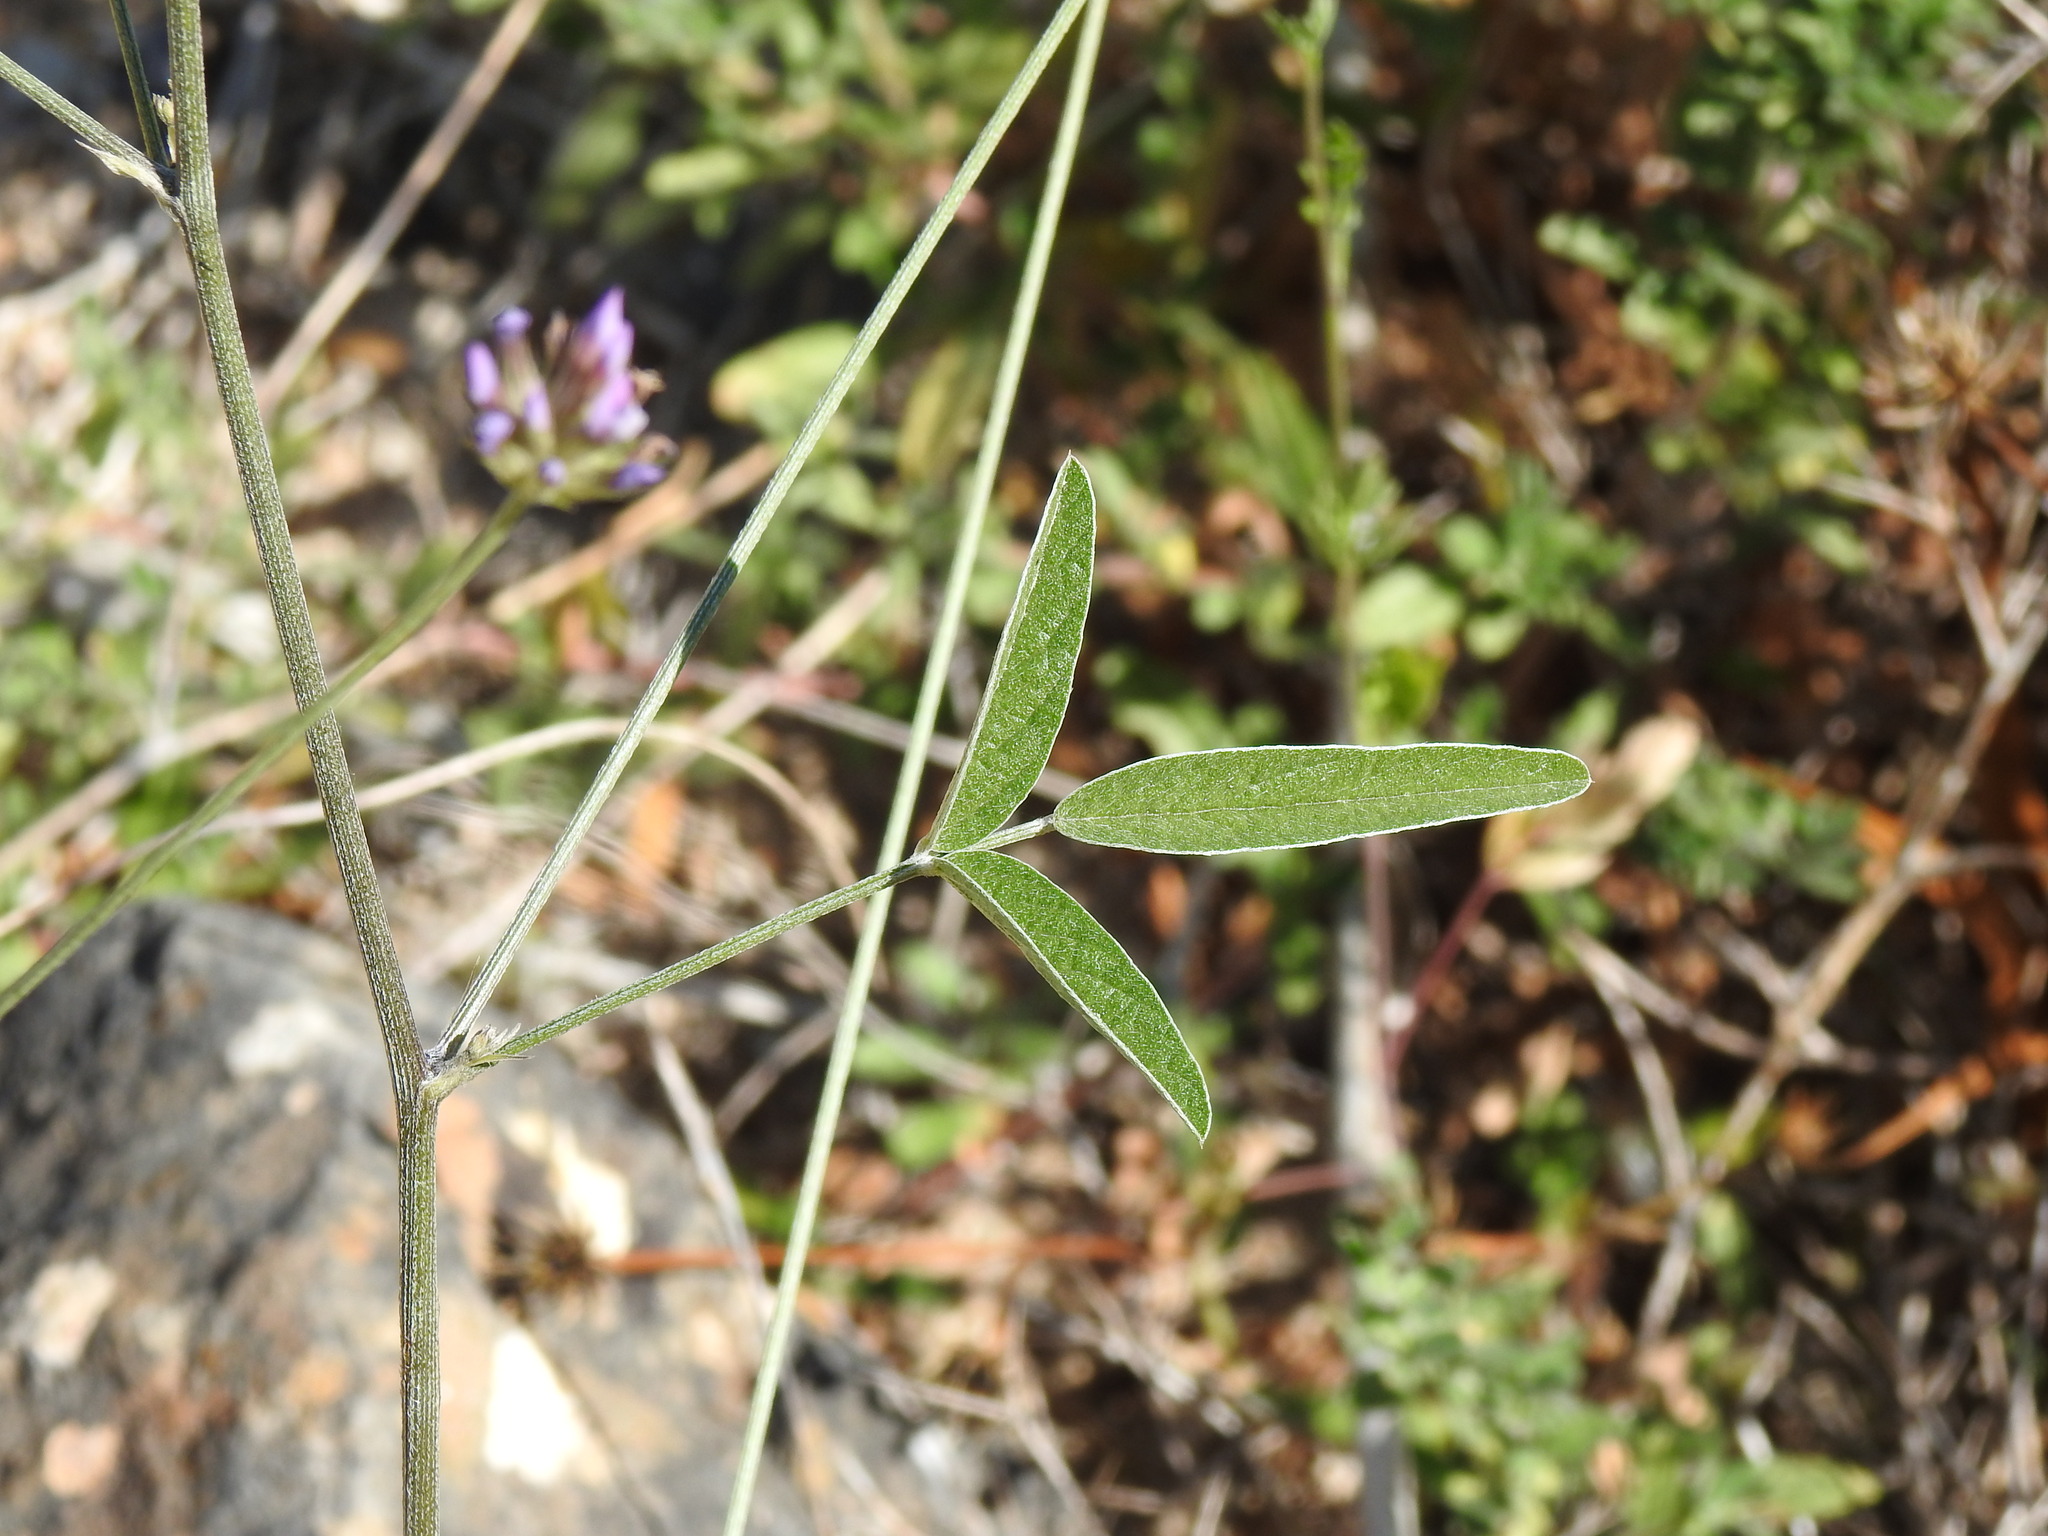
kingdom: Plantae
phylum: Tracheophyta
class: Magnoliopsida
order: Fabales
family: Fabaceae
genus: Bituminaria
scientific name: Bituminaria bituminosa
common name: Arabian pea
